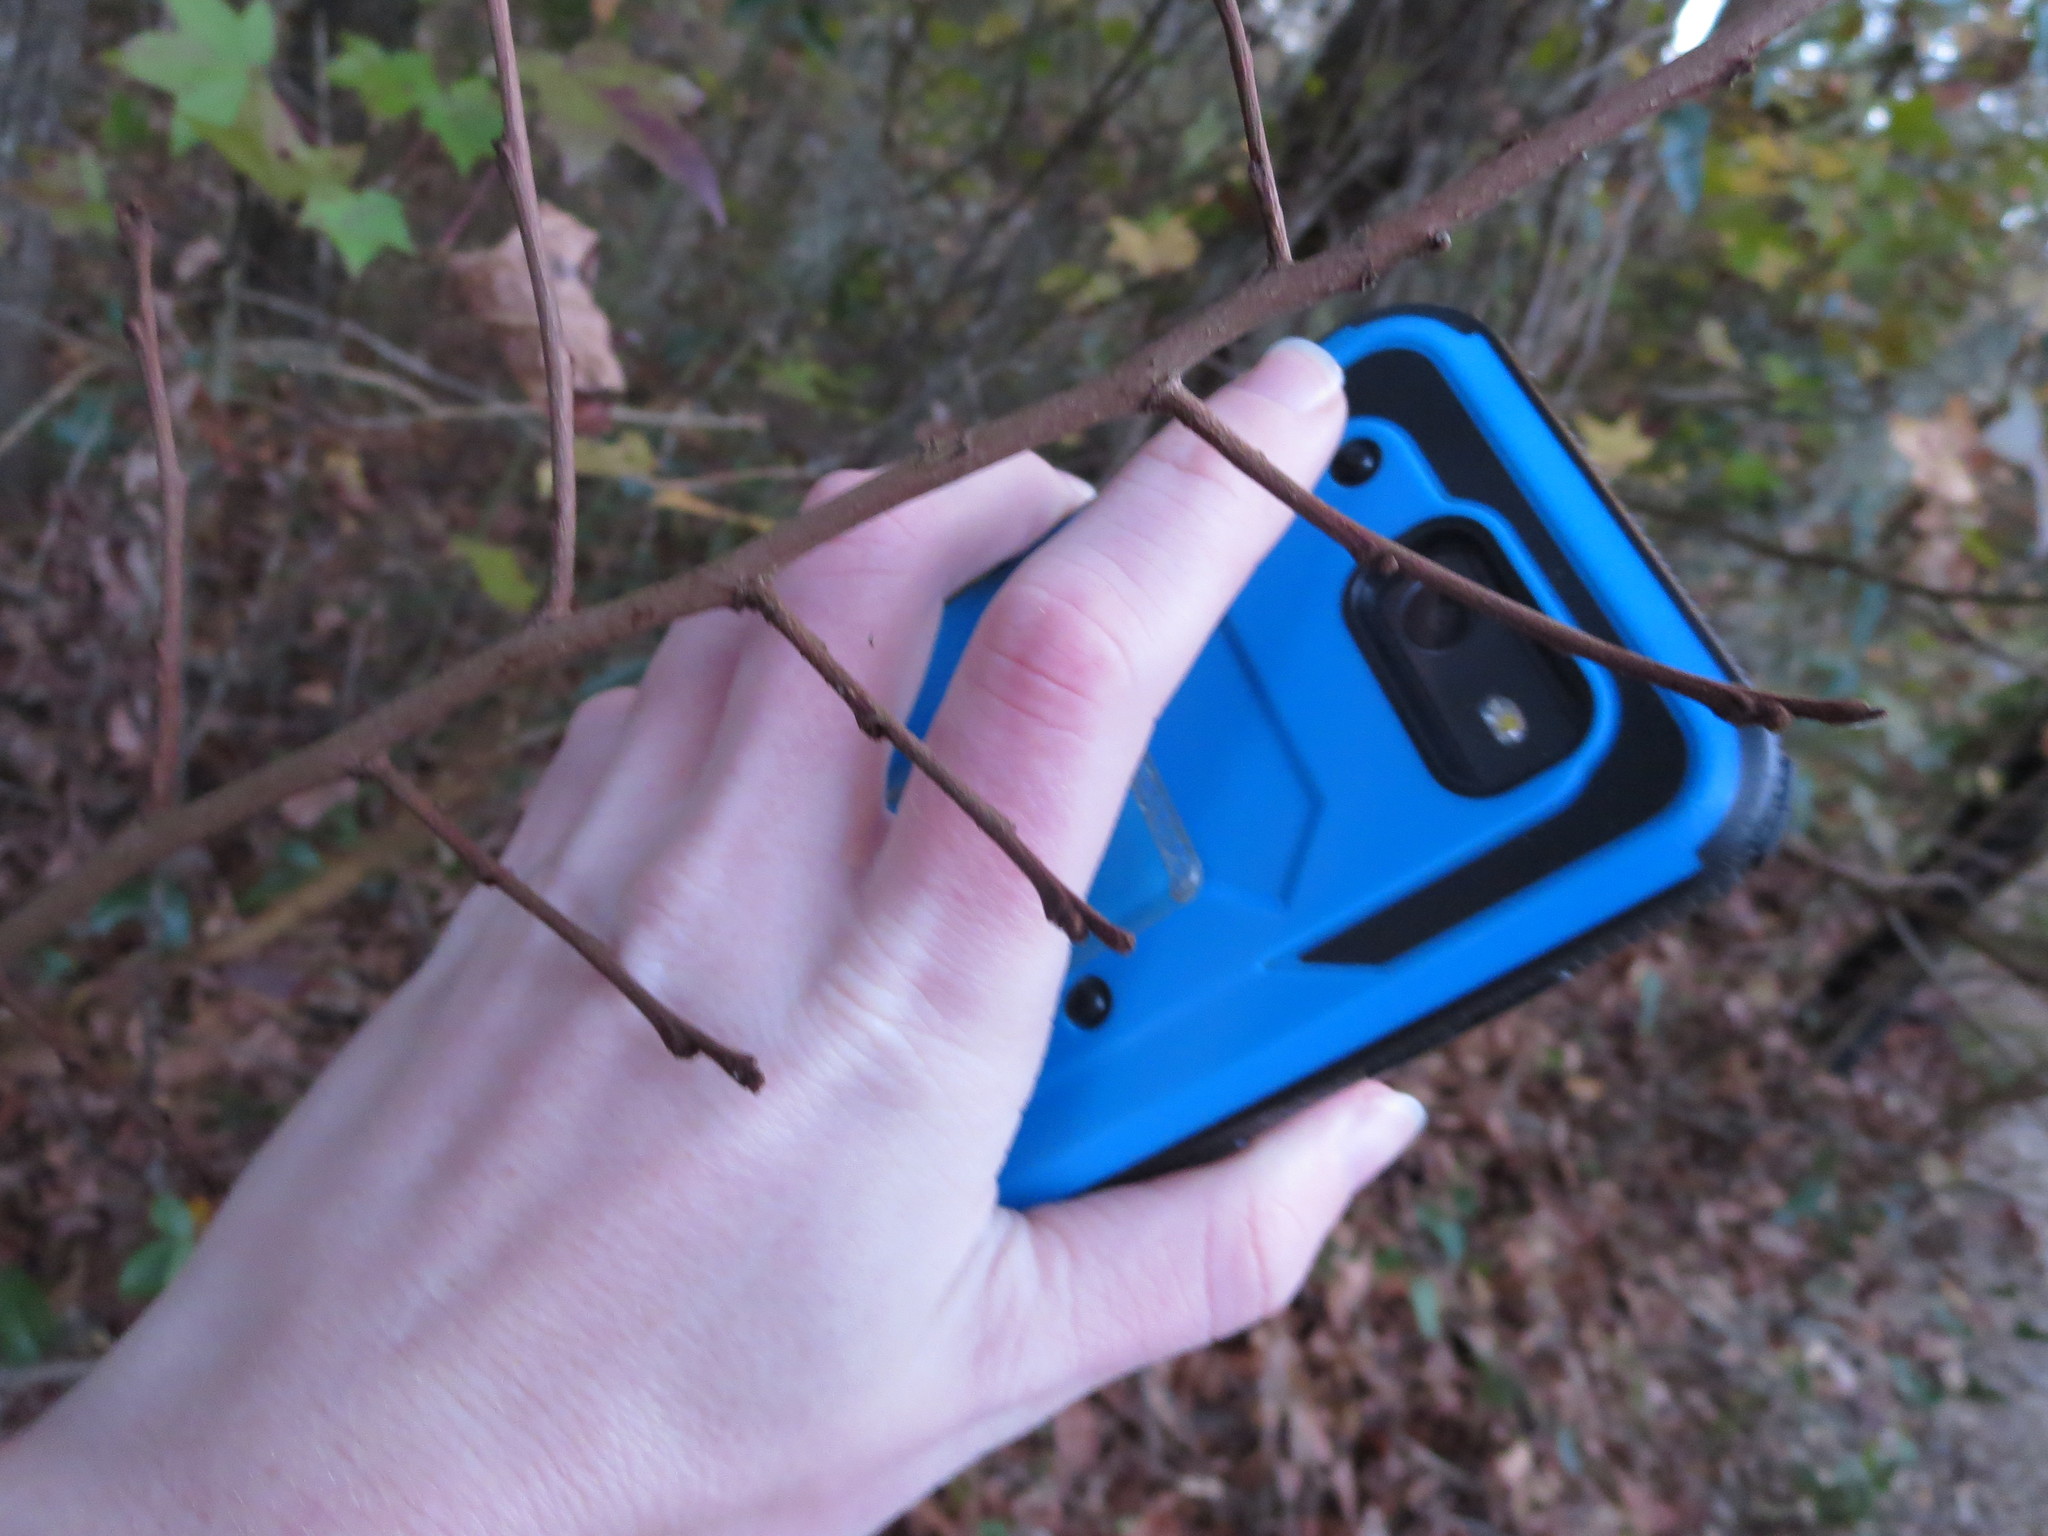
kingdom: Plantae
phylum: Tracheophyta
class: Magnoliopsida
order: Magnoliales
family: Annonaceae
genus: Asimina
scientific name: Asimina parviflora
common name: Dwarf pawpaw
